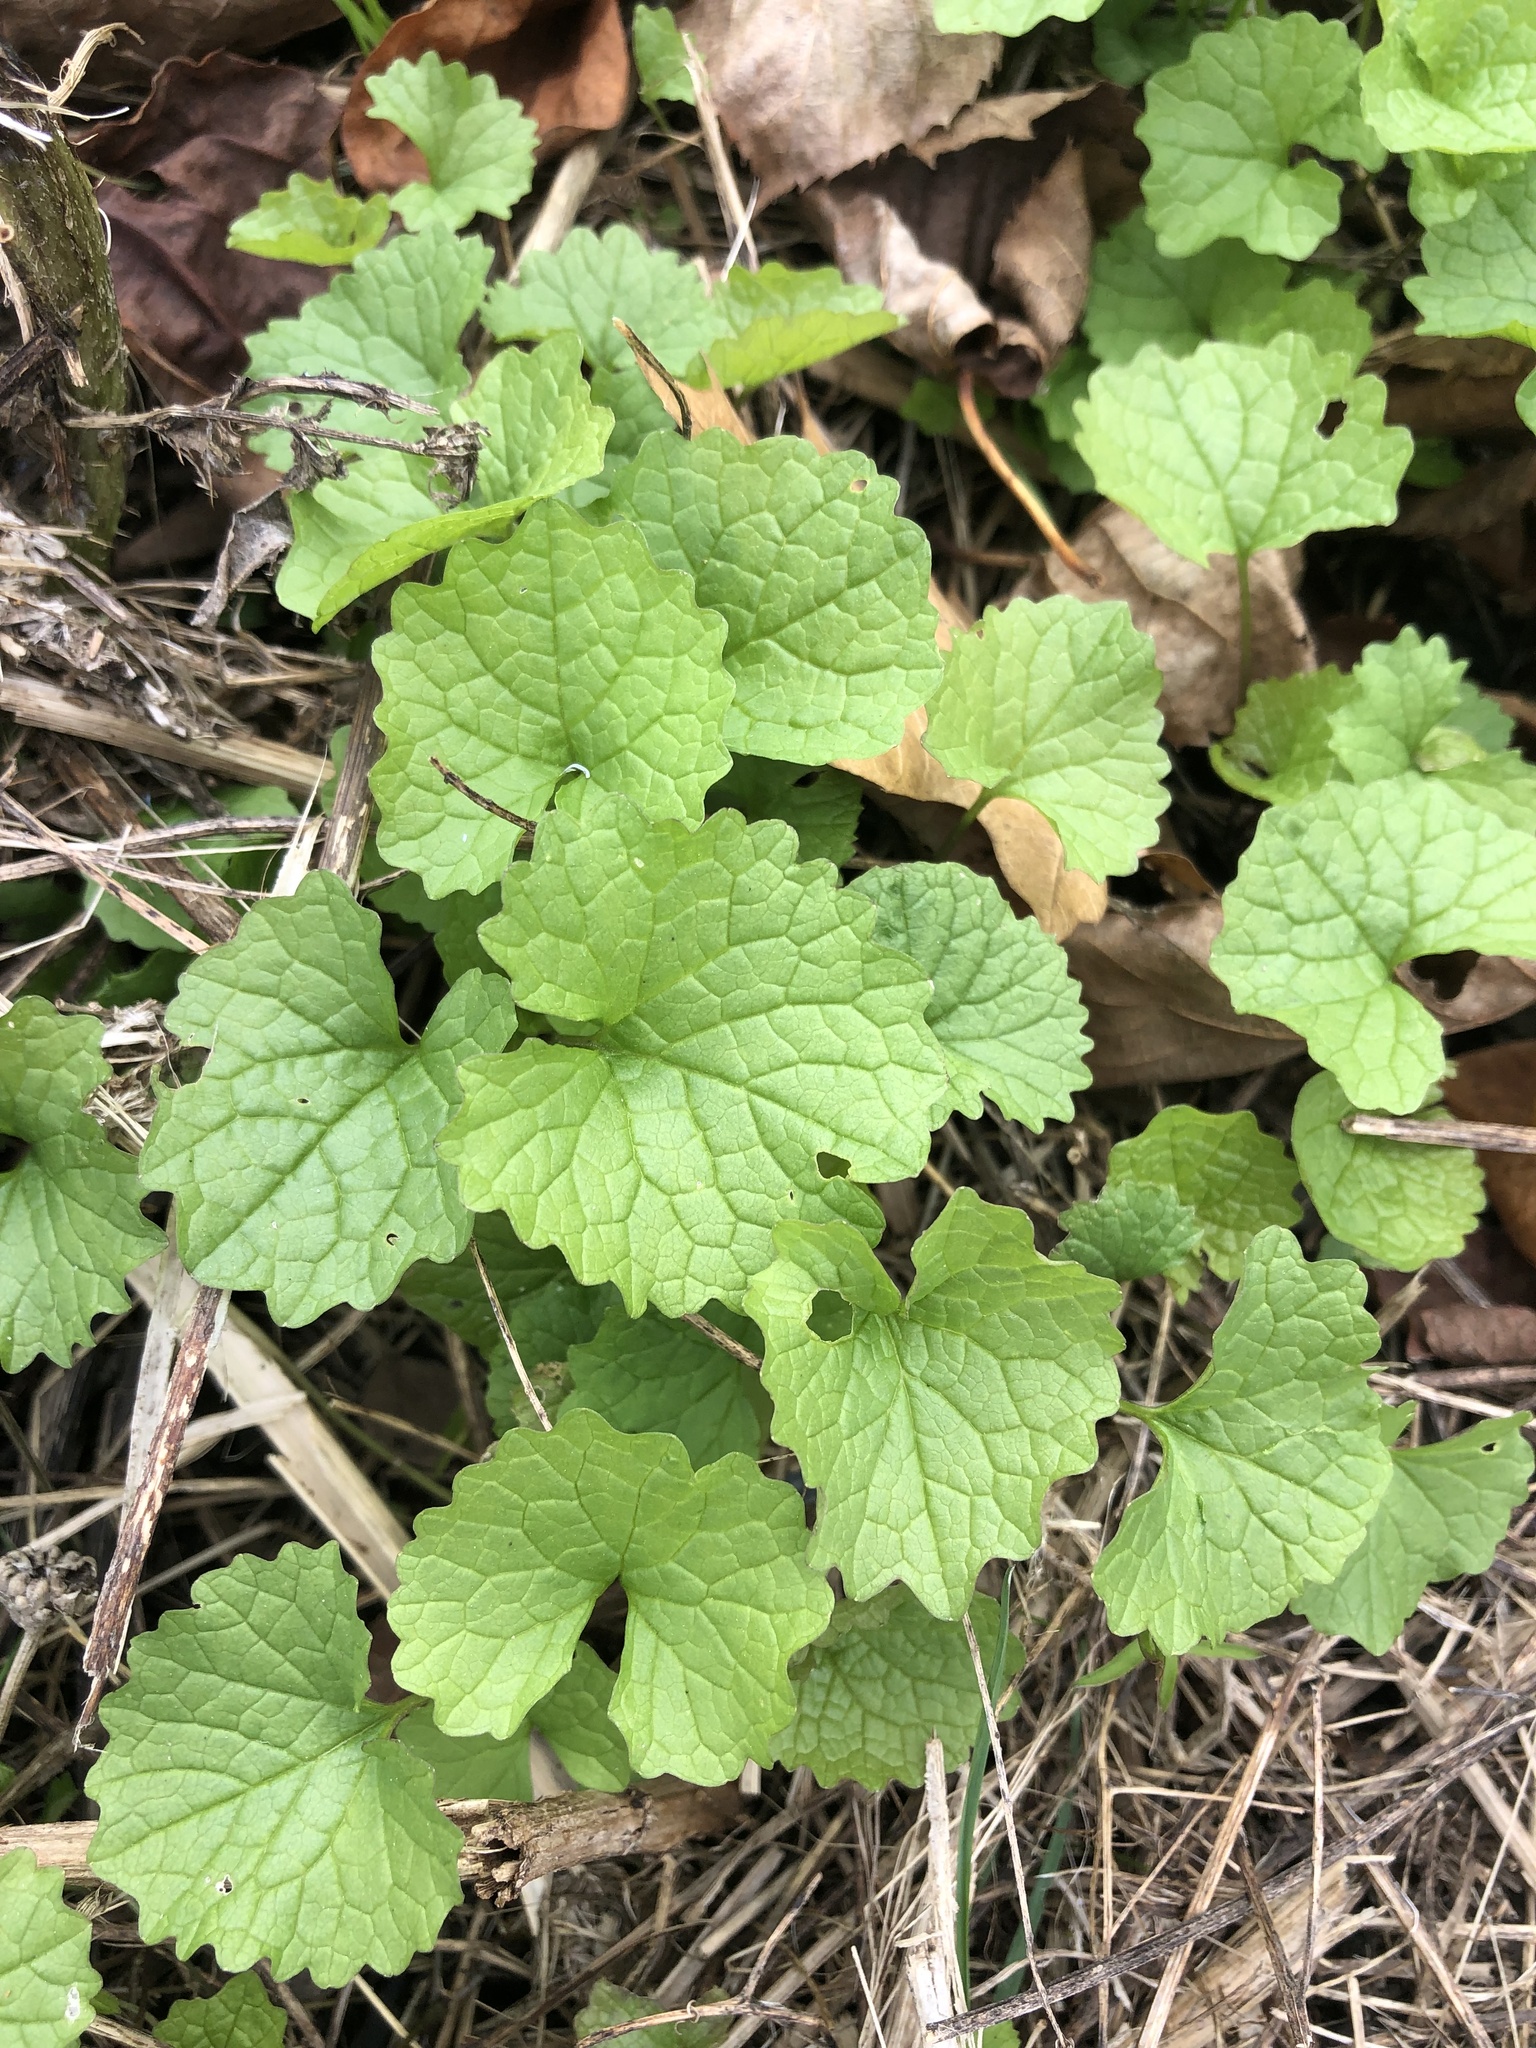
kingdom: Plantae
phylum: Tracheophyta
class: Magnoliopsida
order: Brassicales
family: Brassicaceae
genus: Alliaria
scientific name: Alliaria petiolata
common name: Garlic mustard
